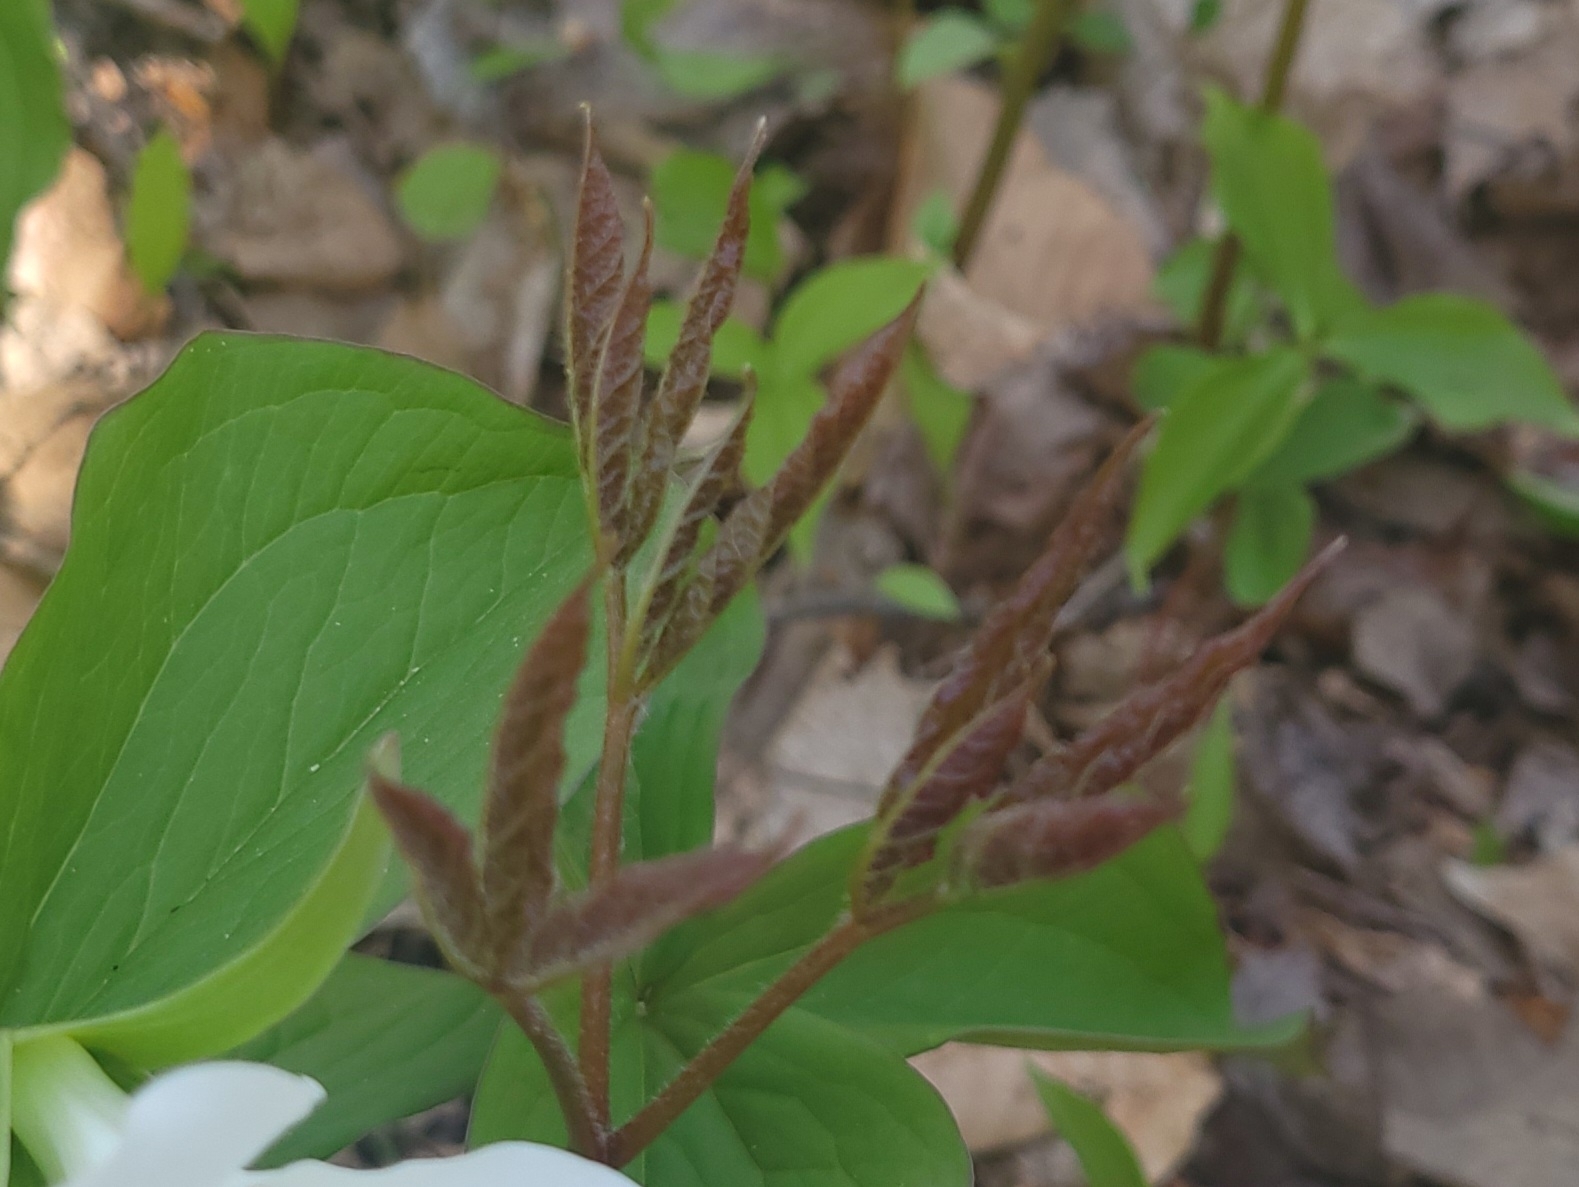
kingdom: Plantae
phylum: Tracheophyta
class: Magnoliopsida
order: Apiales
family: Araliaceae
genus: Aralia
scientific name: Aralia nudicaulis
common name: Wild sarsaparilla
